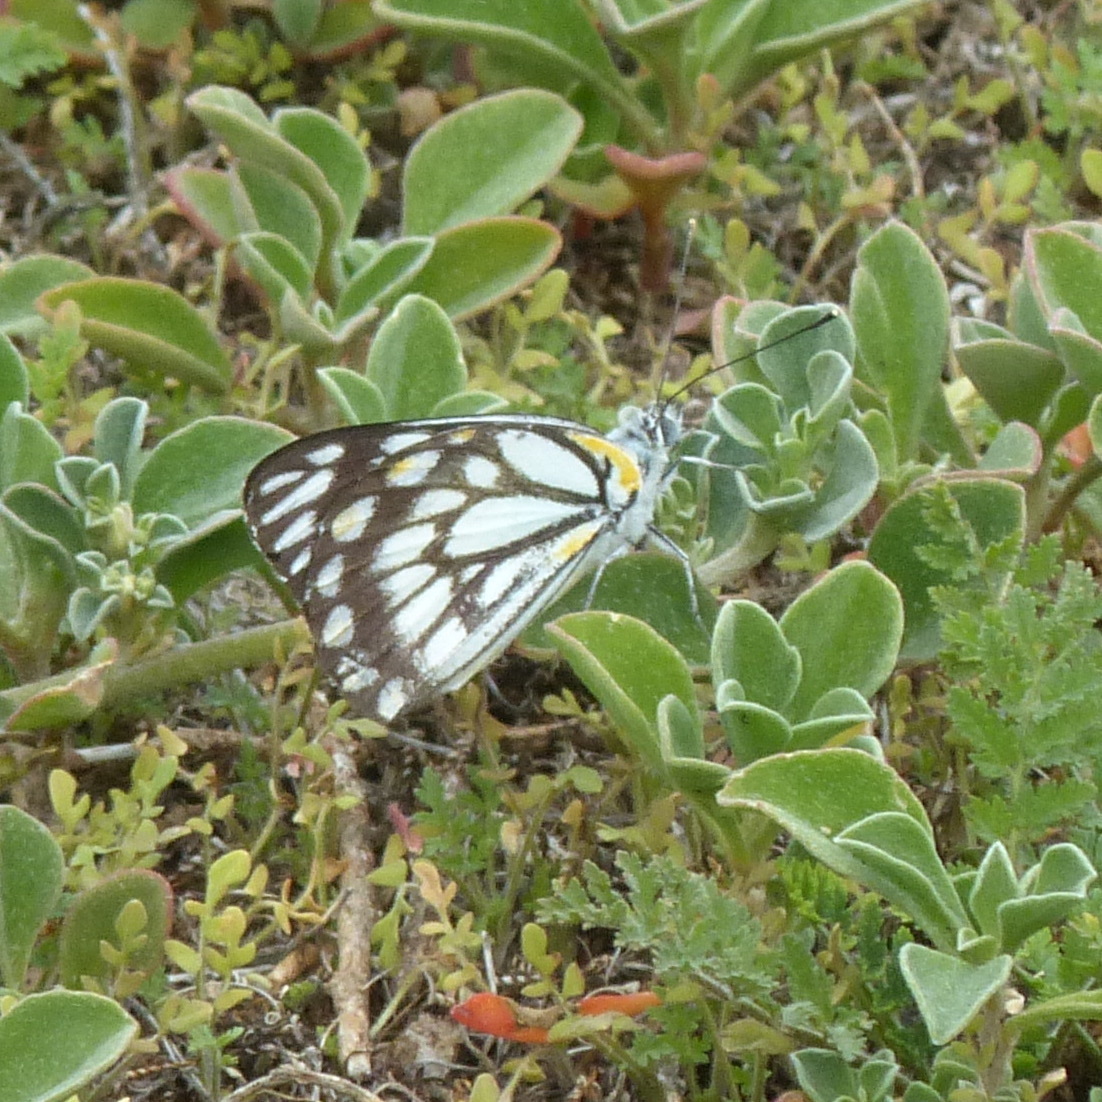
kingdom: Animalia
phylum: Arthropoda
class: Insecta
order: Lepidoptera
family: Pieridae
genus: Belenois
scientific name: Belenois java
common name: Caper white
